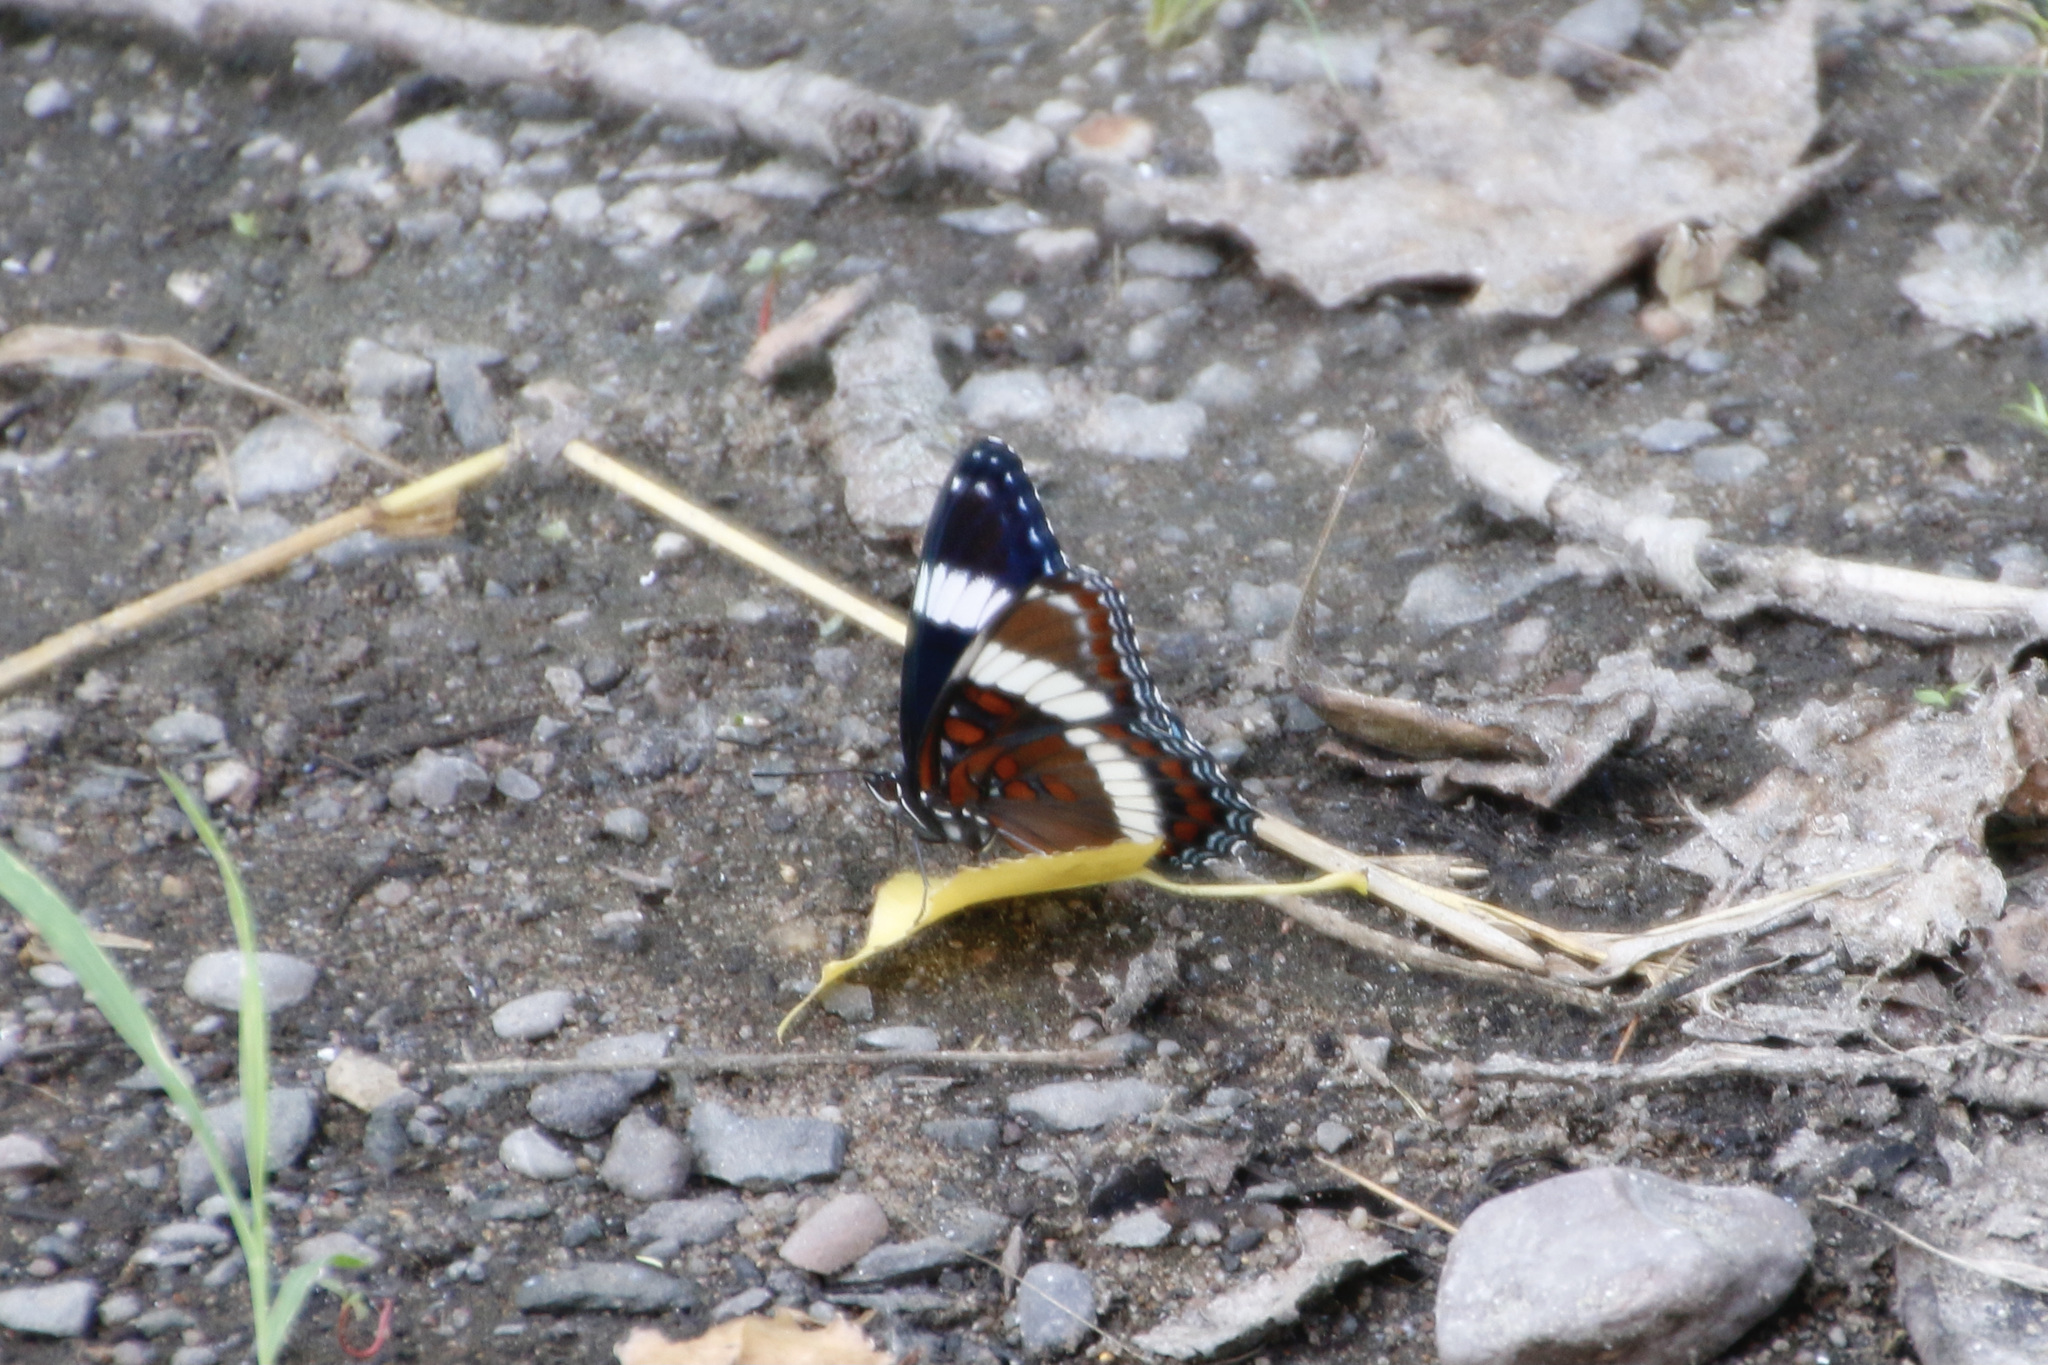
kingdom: Animalia
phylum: Arthropoda
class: Insecta
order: Lepidoptera
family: Nymphalidae
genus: Limenitis
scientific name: Limenitis arthemis
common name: Red-spotted admiral
